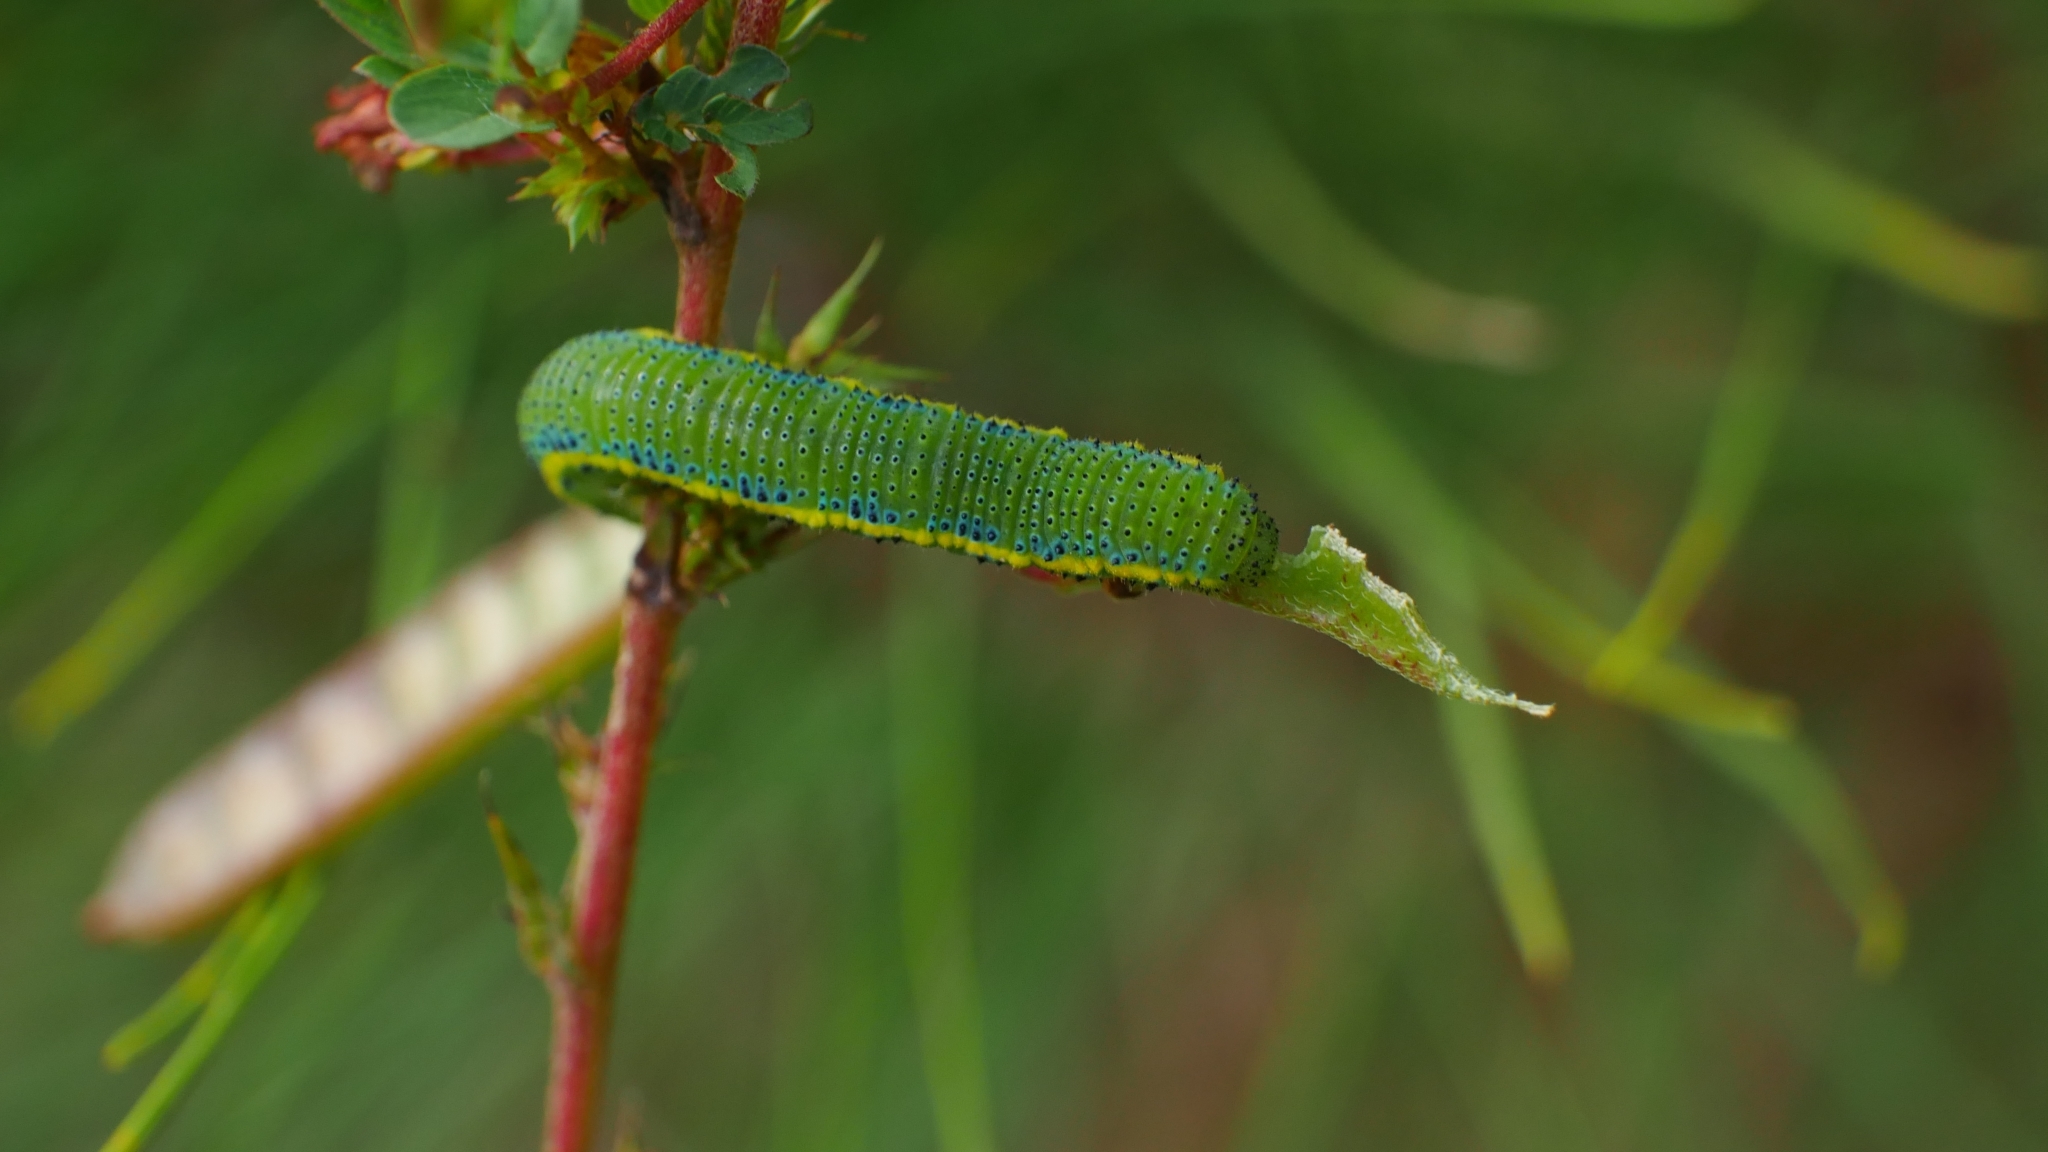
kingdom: Animalia
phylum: Arthropoda
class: Insecta
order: Lepidoptera
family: Pieridae
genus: Phoebis
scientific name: Phoebis sennae
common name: Cloudless sulphur
